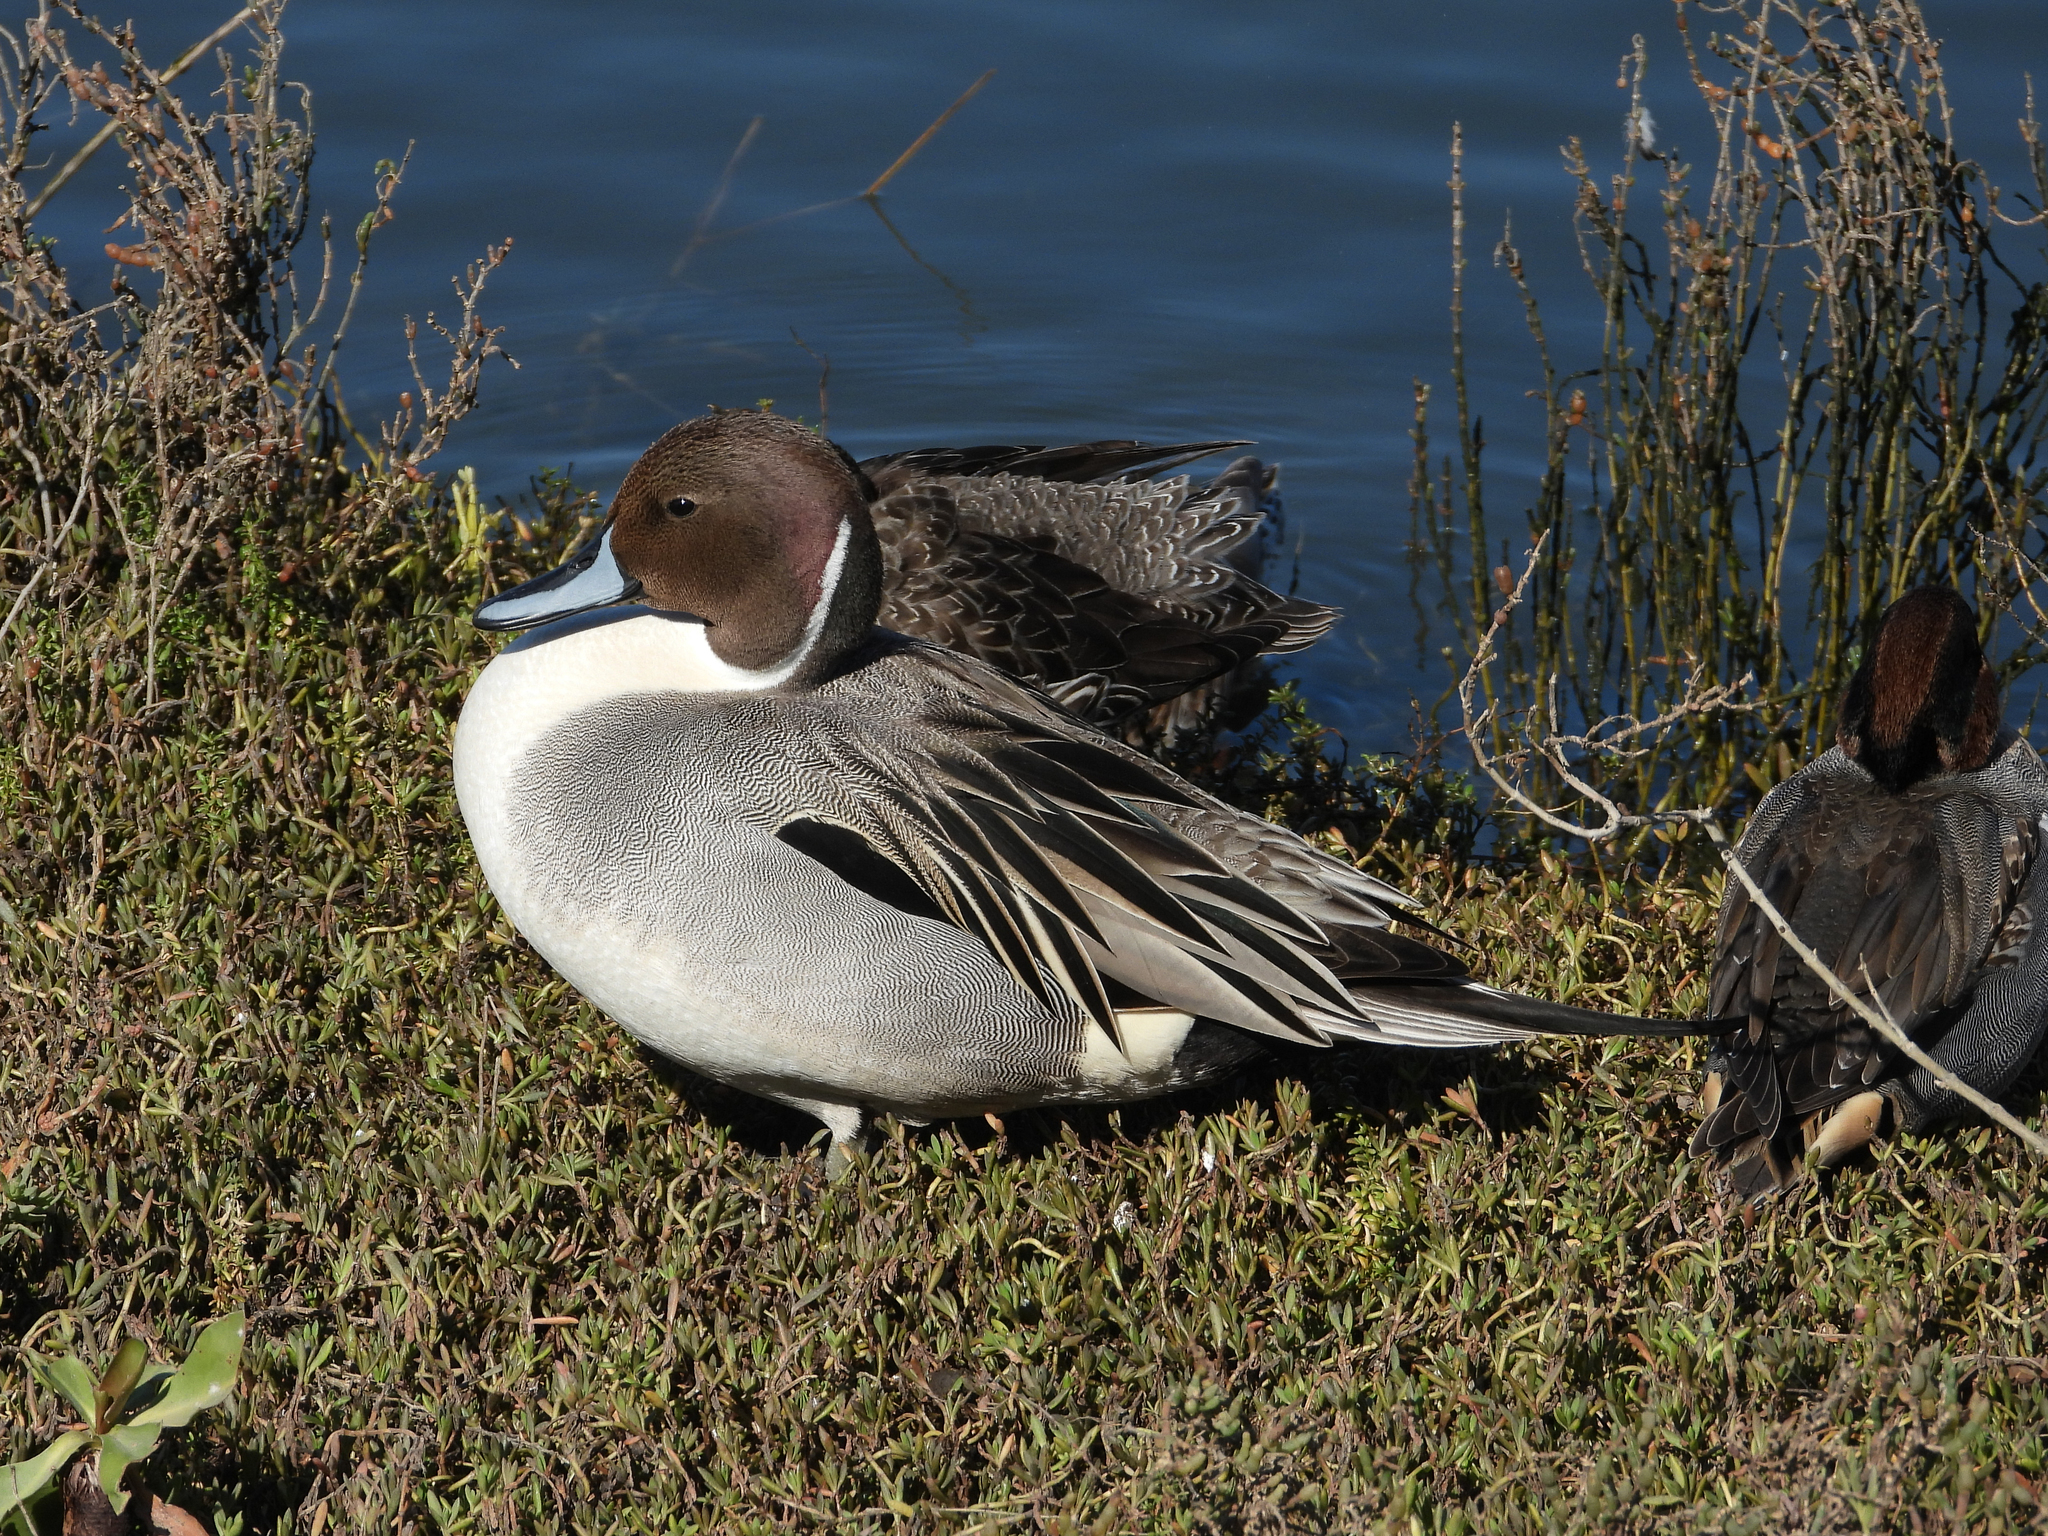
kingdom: Animalia
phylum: Chordata
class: Aves
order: Anseriformes
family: Anatidae
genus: Anas
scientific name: Anas acuta
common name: Northern pintail
